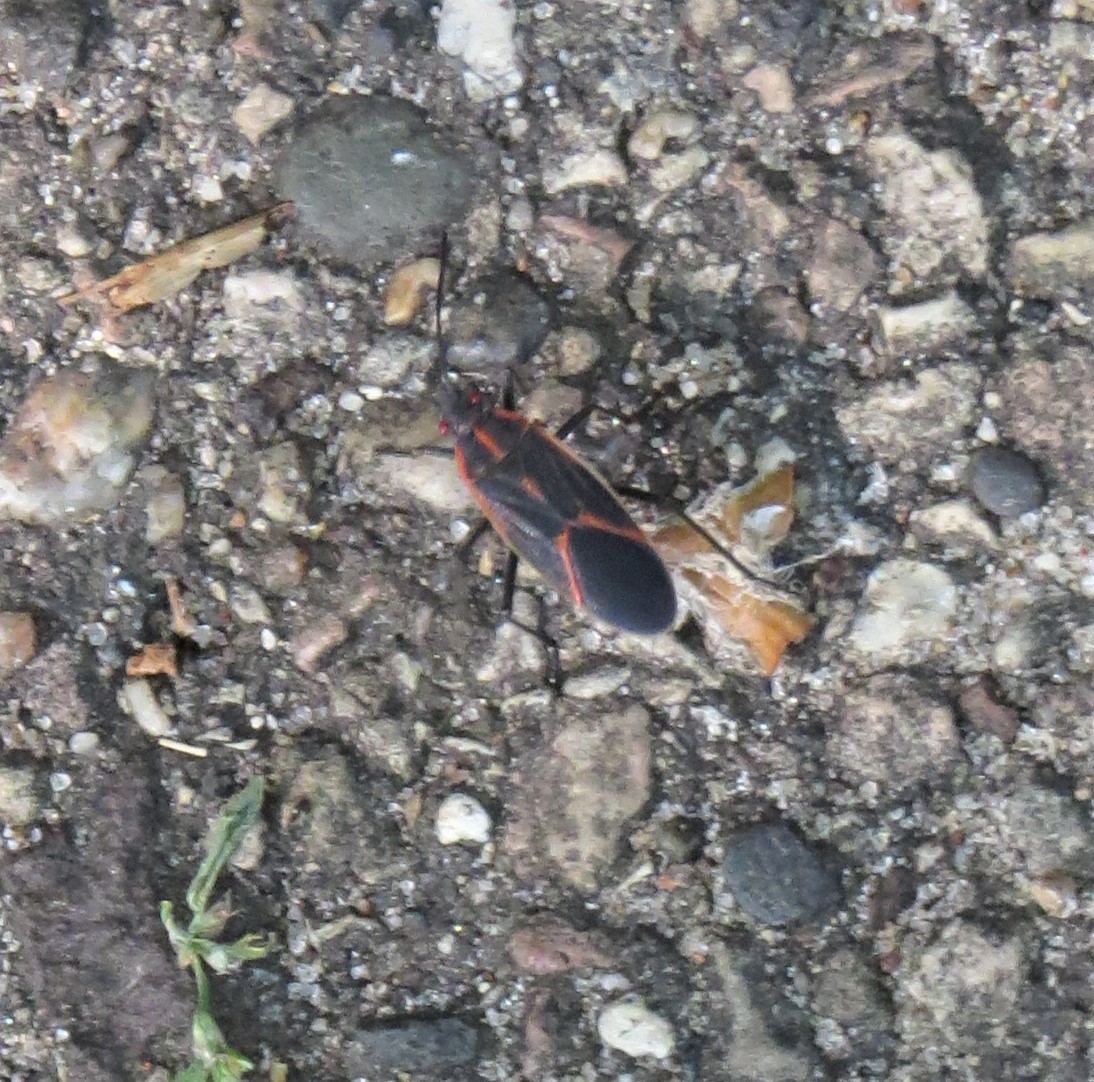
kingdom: Animalia
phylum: Arthropoda
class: Insecta
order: Hemiptera
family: Rhopalidae
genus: Boisea
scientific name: Boisea trivittata
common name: Boxelder bug
